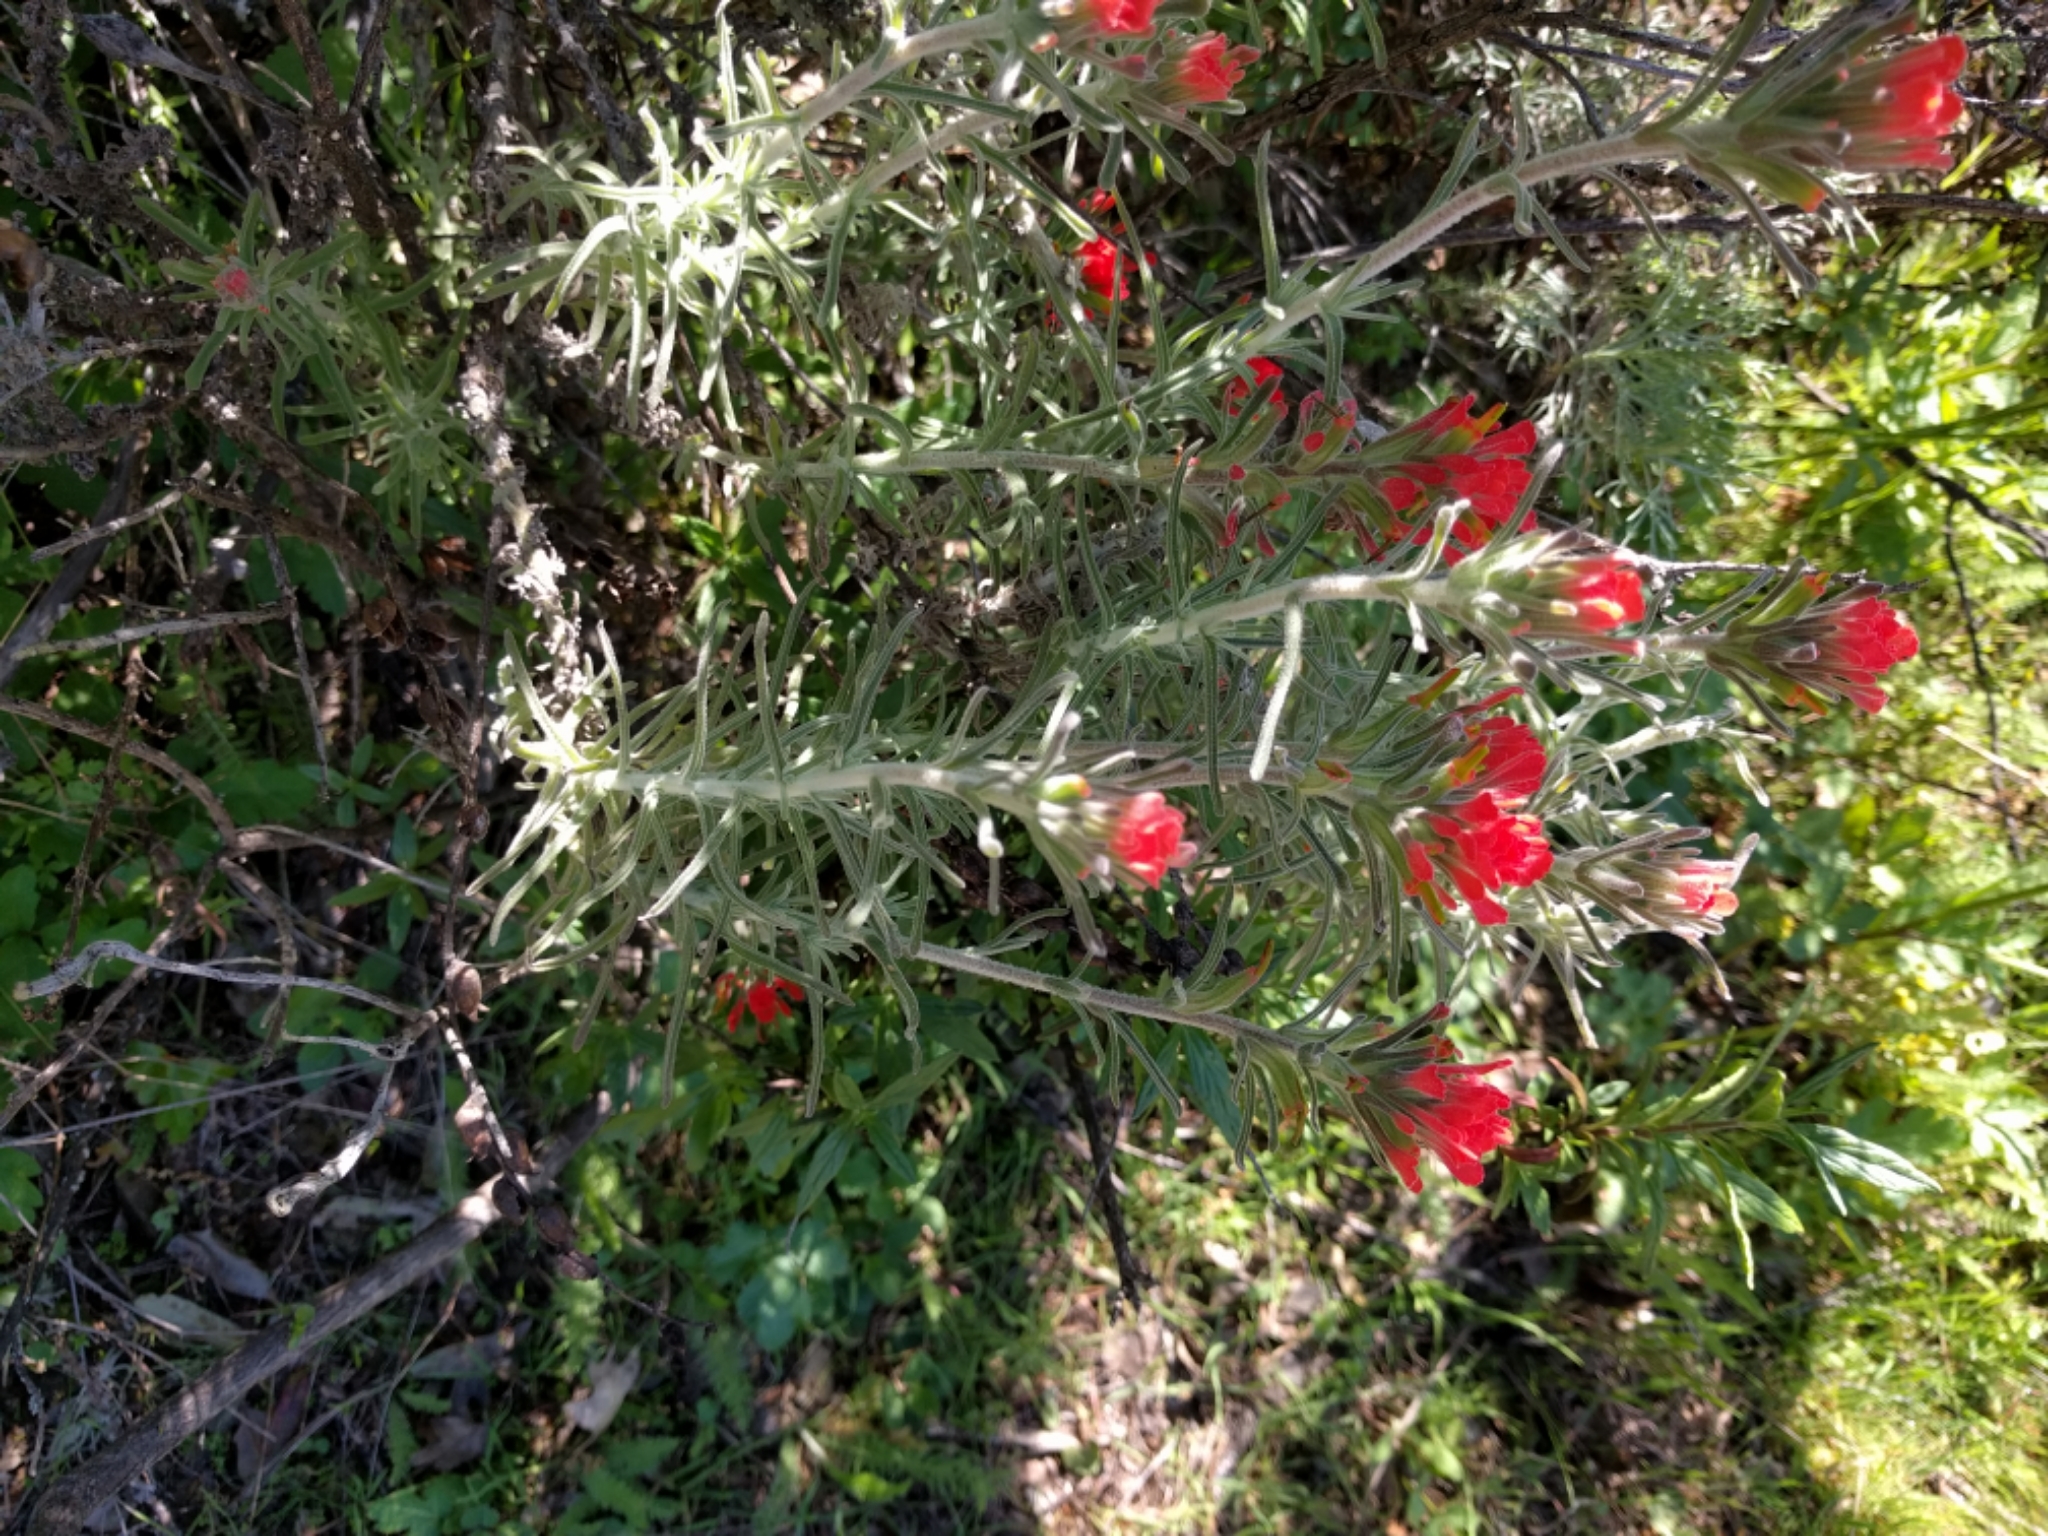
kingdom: Plantae
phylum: Tracheophyta
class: Magnoliopsida
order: Lamiales
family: Orobanchaceae
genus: Castilleja
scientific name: Castilleja foliolosa
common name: Woolly indian paintbrush
